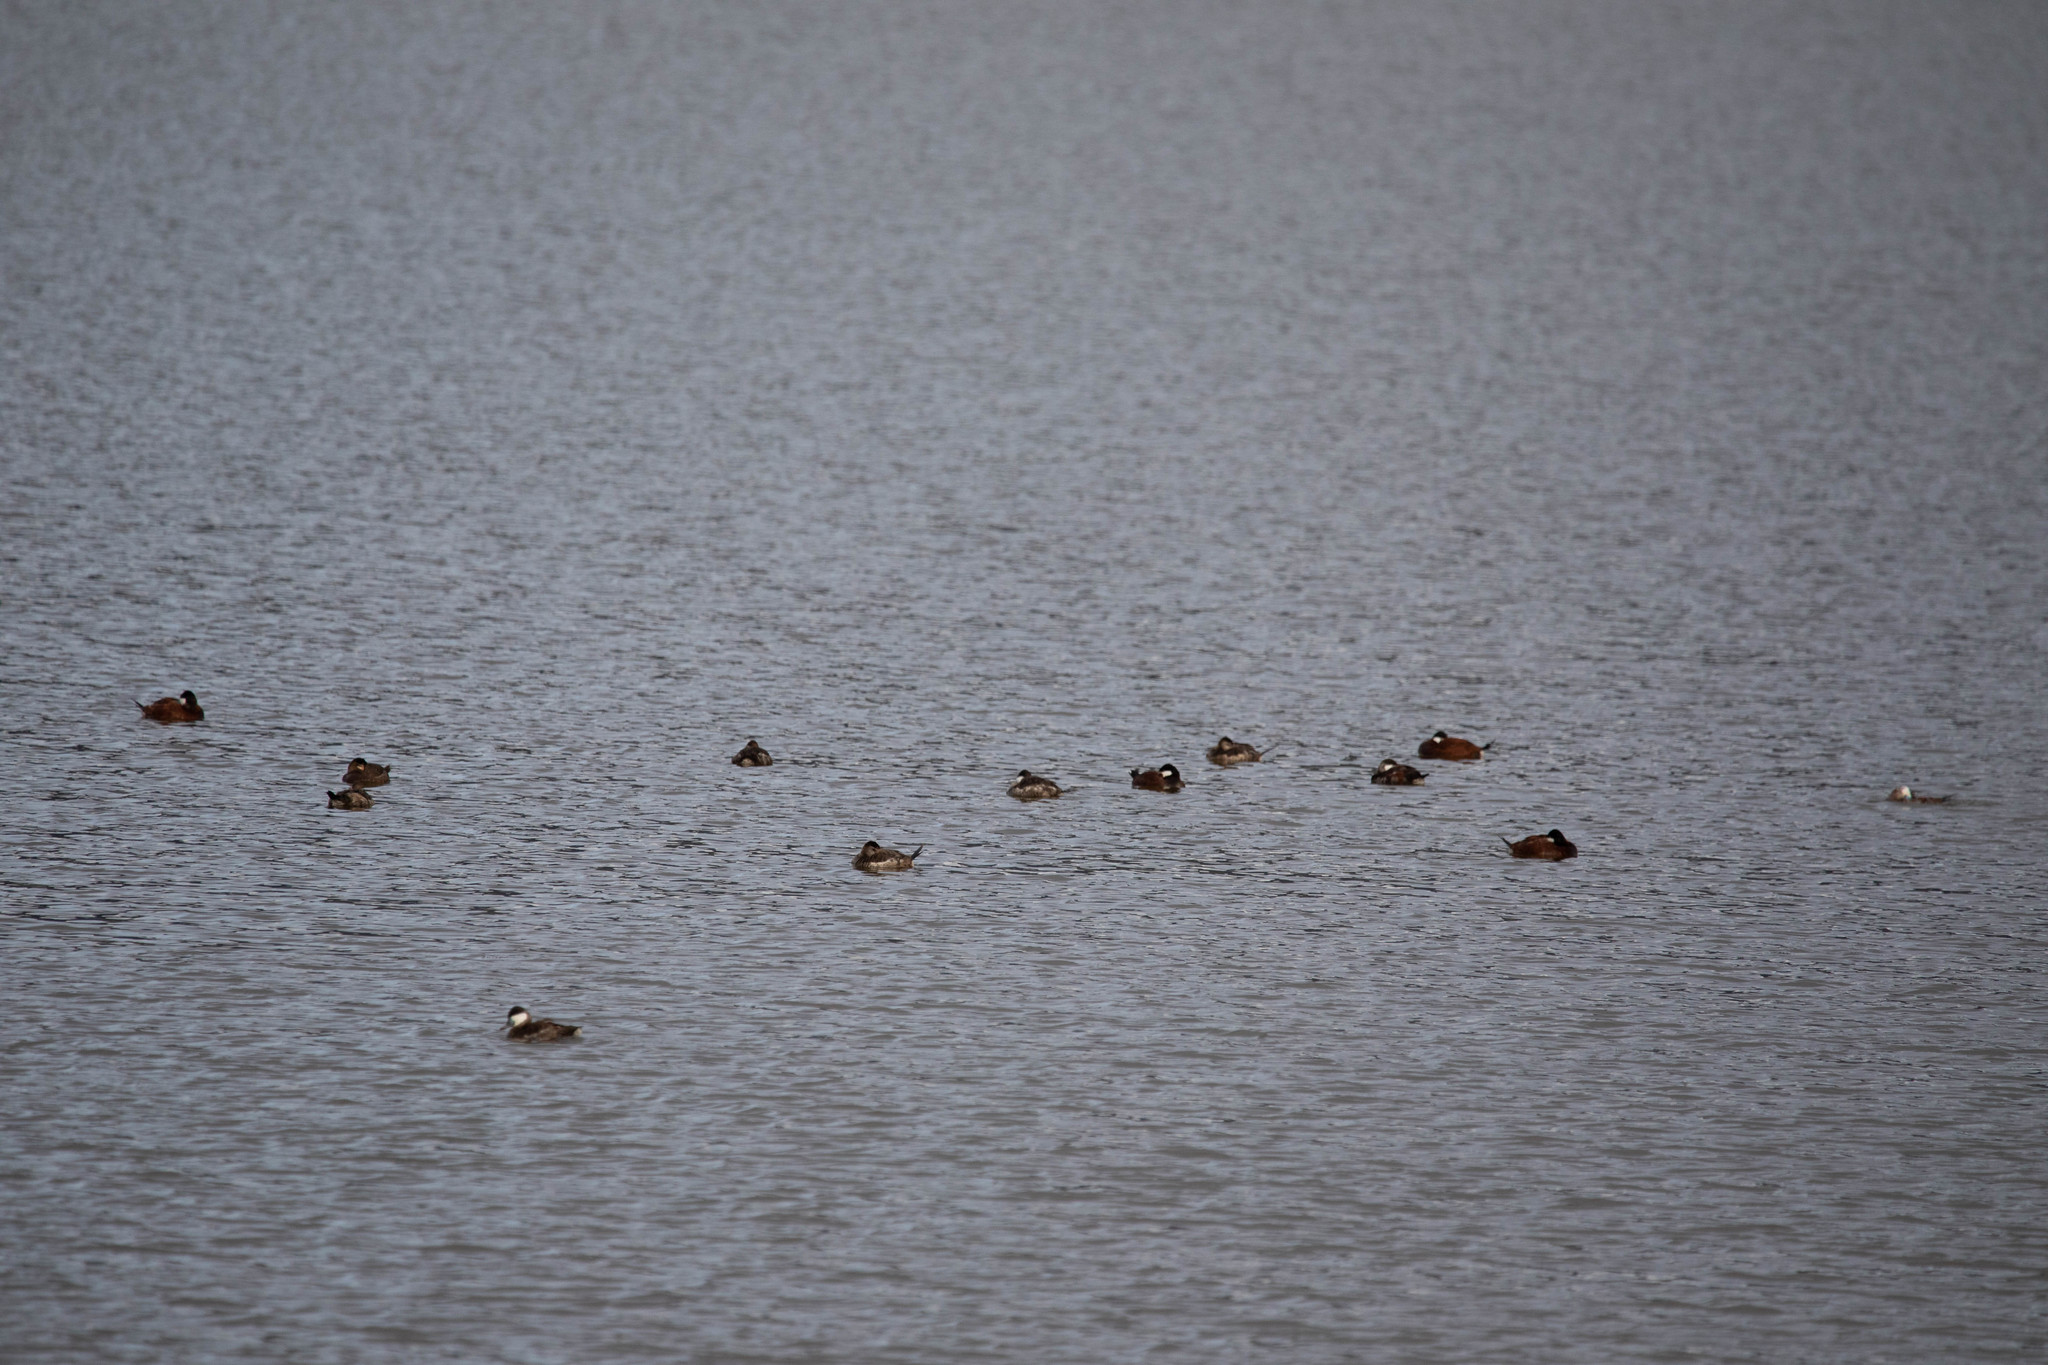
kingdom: Animalia
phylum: Chordata
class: Aves
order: Anseriformes
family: Anatidae
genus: Oxyura
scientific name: Oxyura jamaicensis
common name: Ruddy duck
